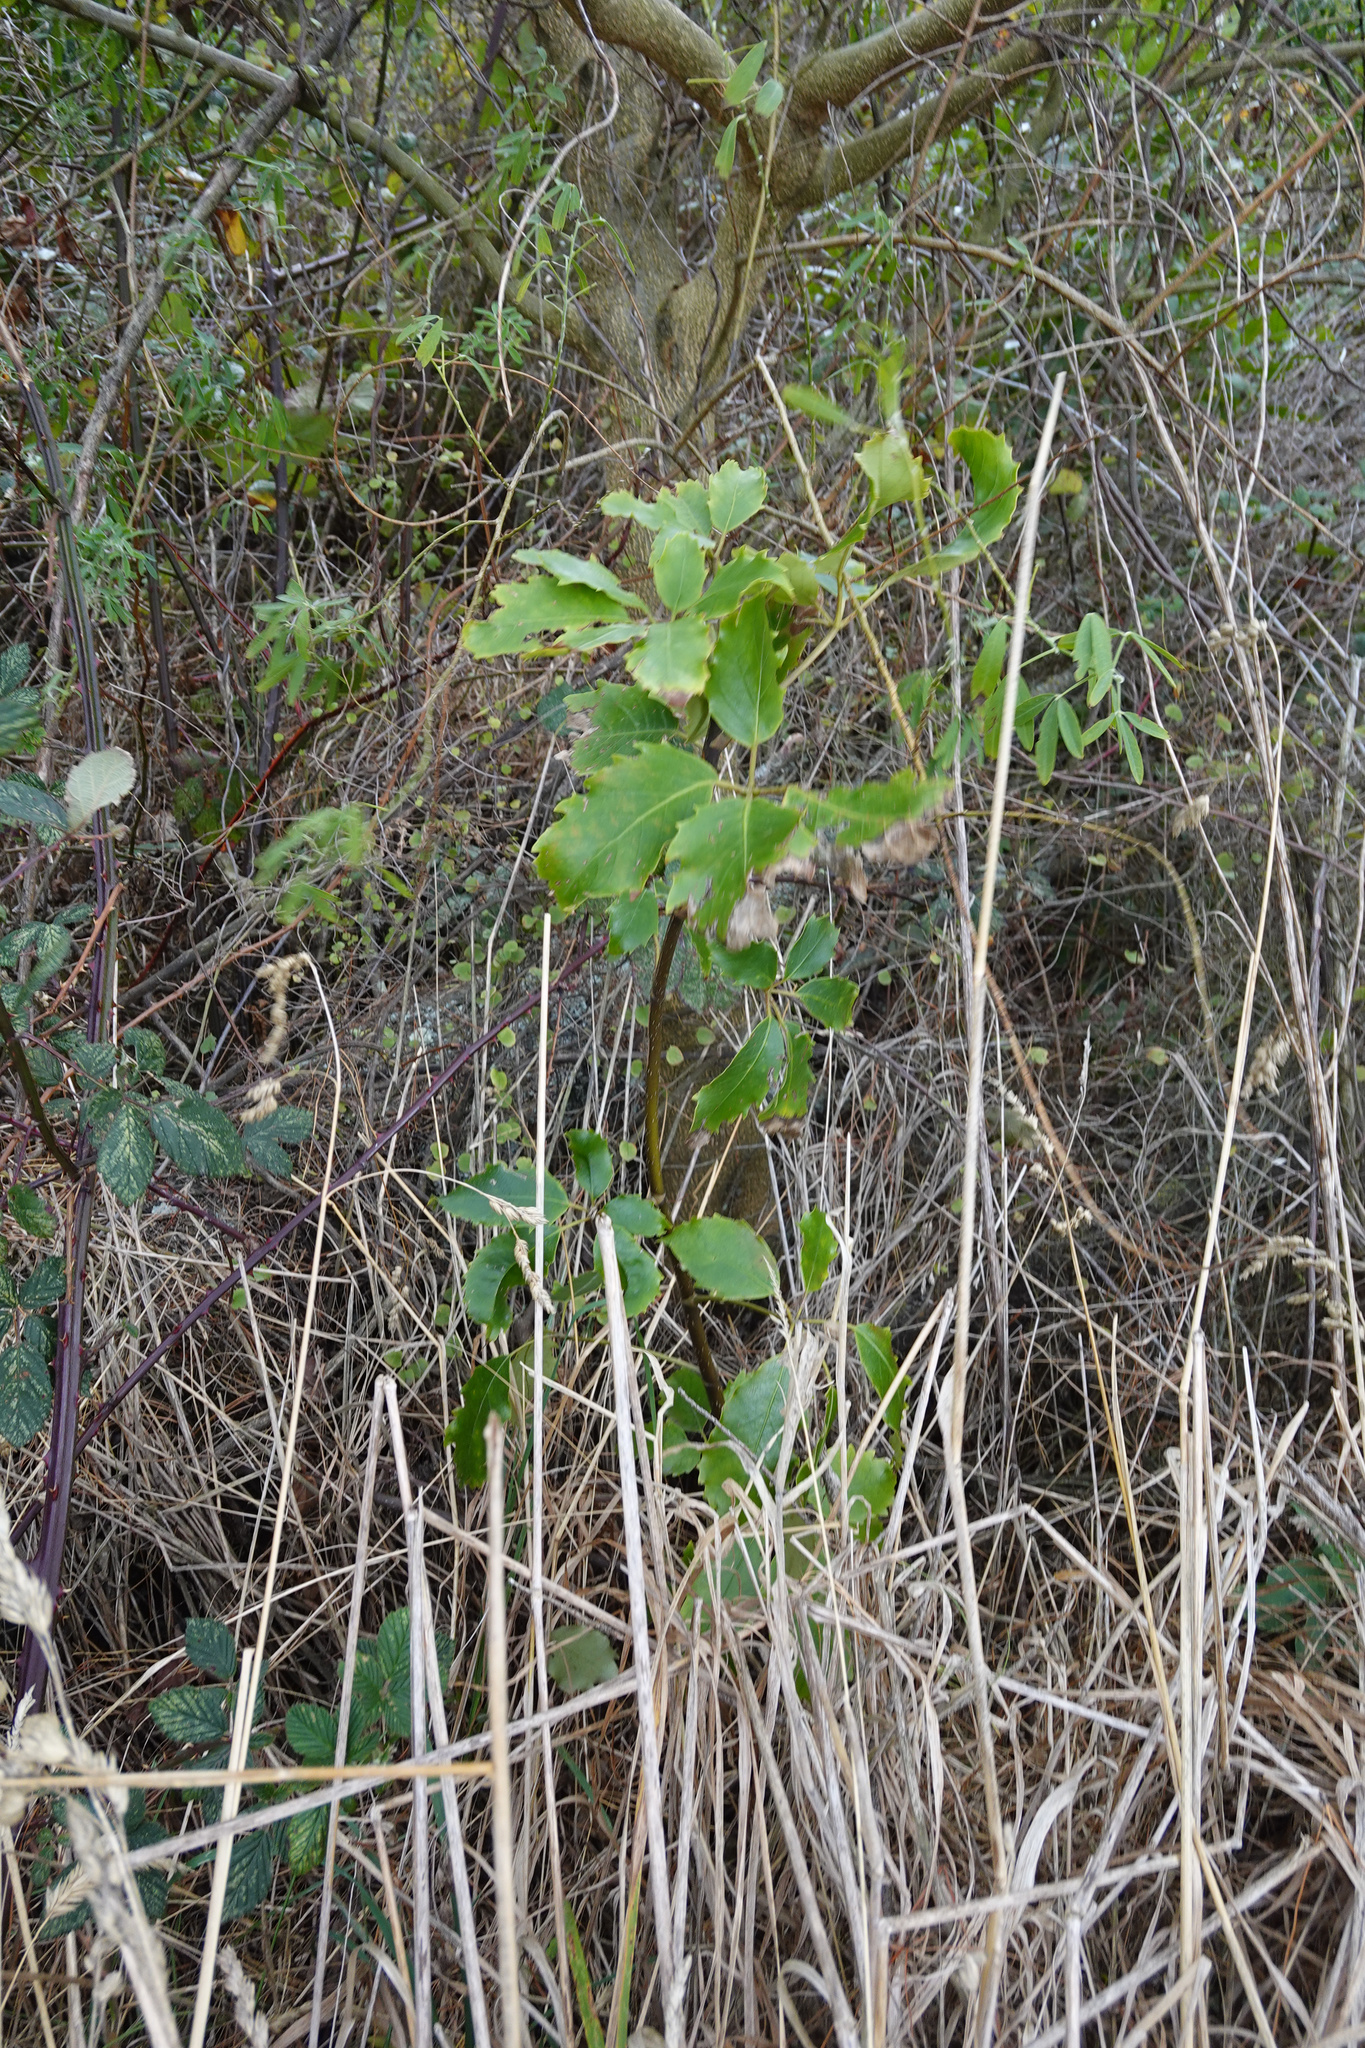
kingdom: Plantae
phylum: Tracheophyta
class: Magnoliopsida
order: Apiales
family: Araliaceae
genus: Neopanax
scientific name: Neopanax arboreus
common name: Five-fingers
